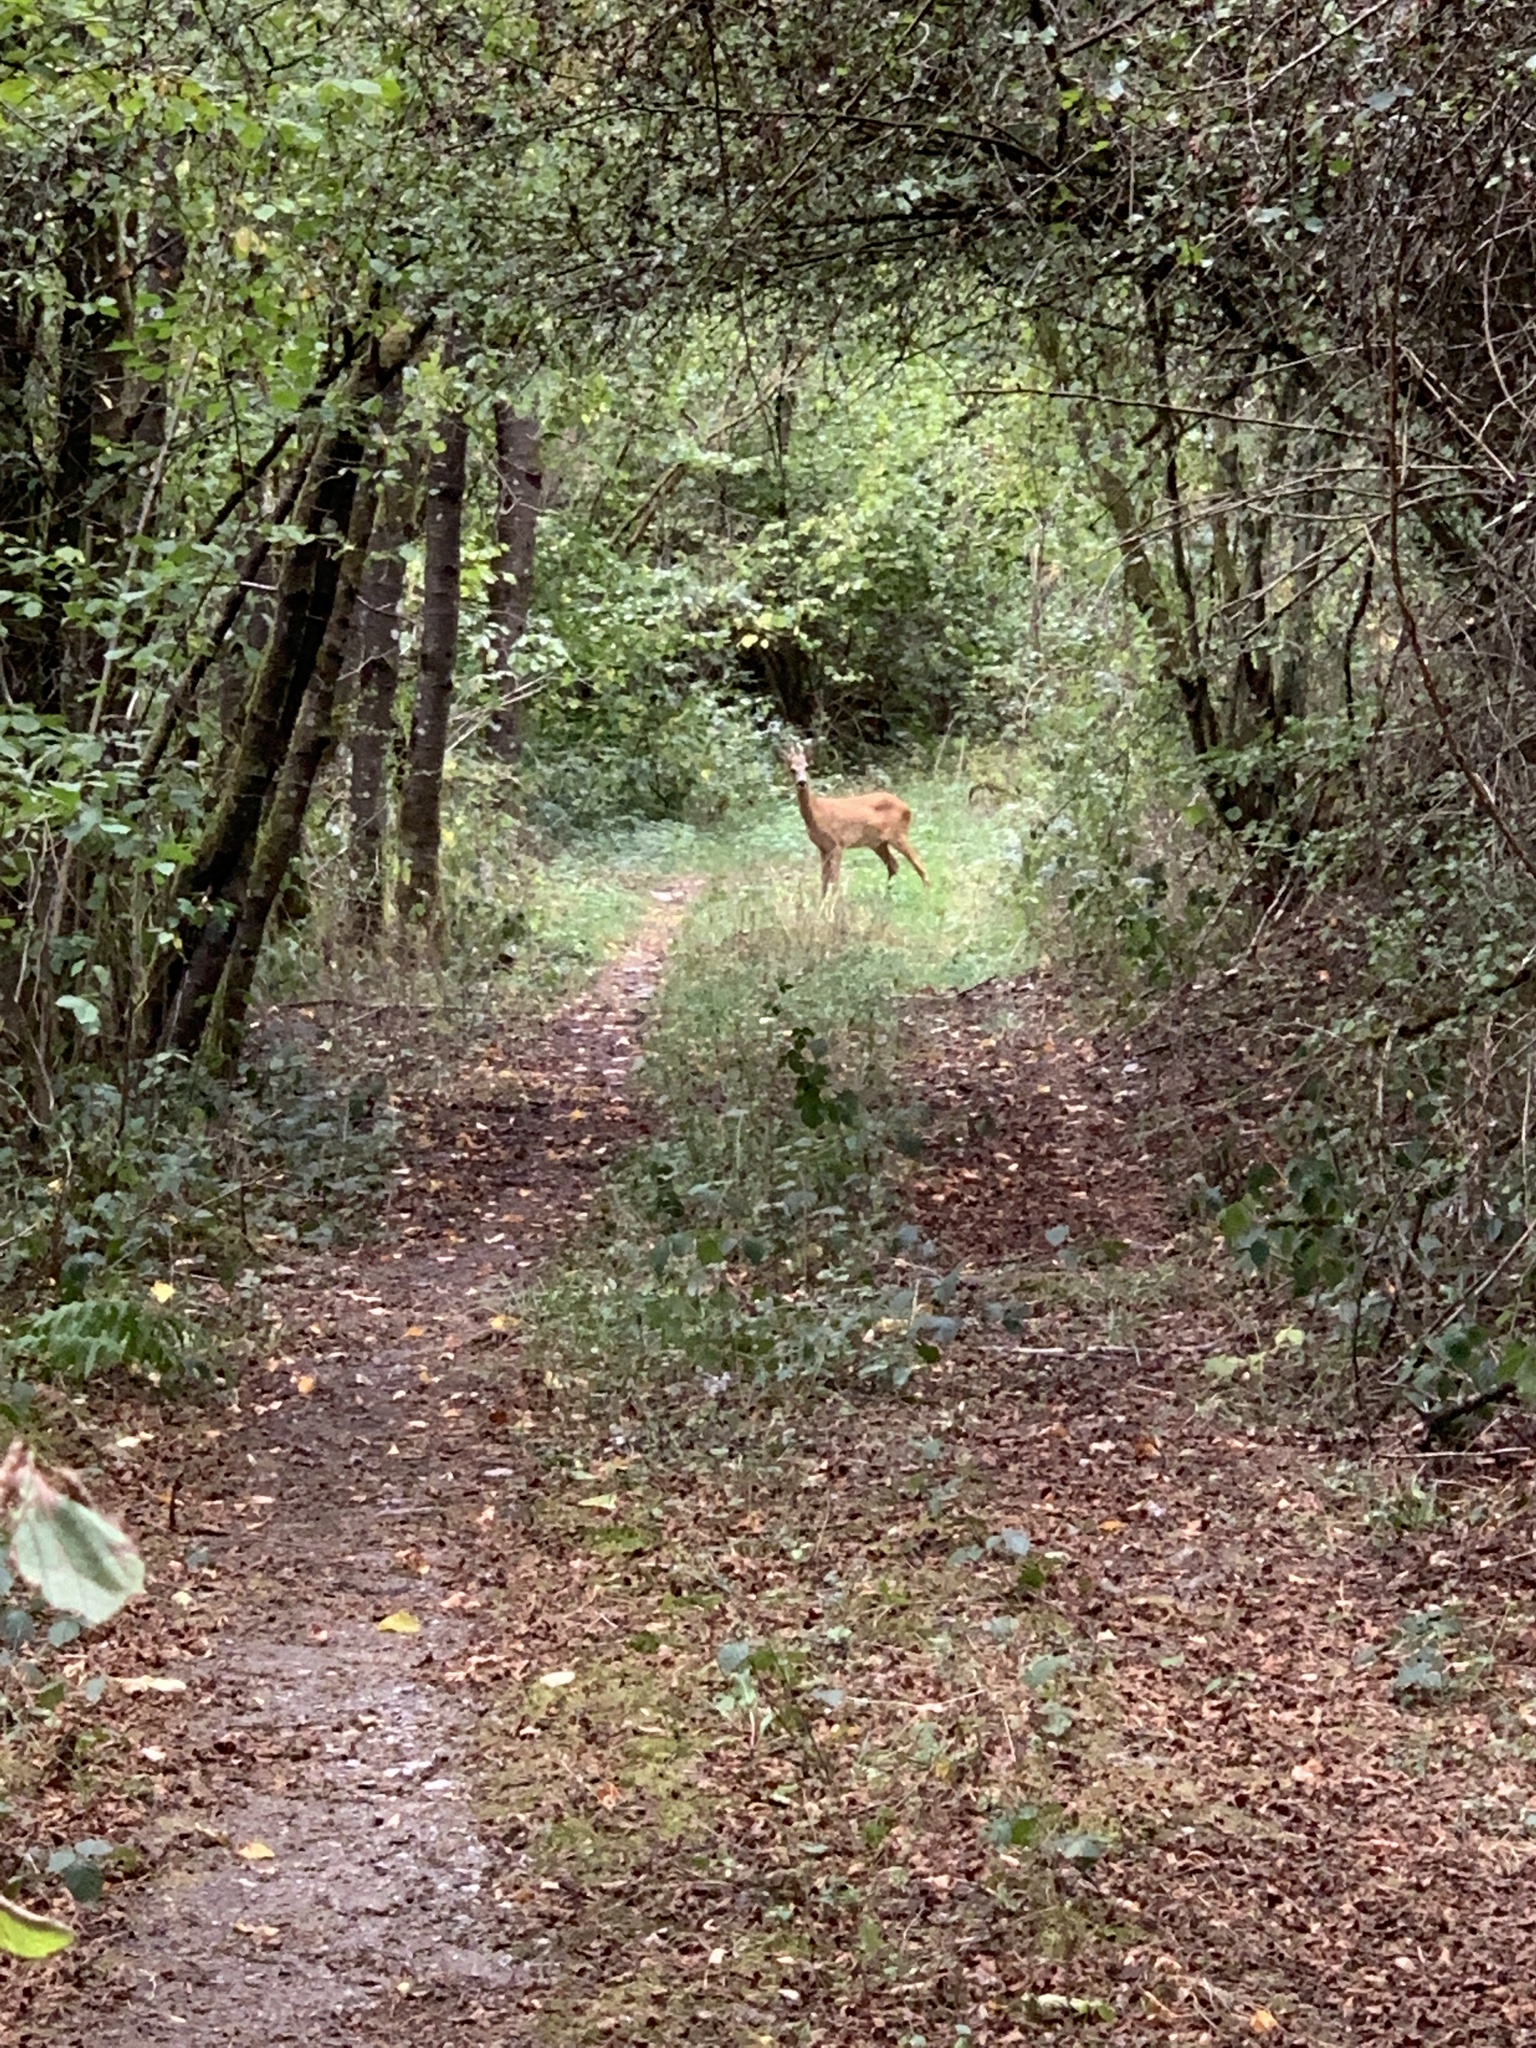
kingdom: Animalia
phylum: Chordata
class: Mammalia
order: Artiodactyla
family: Cervidae
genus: Capreolus
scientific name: Capreolus capreolus
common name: Western roe deer
